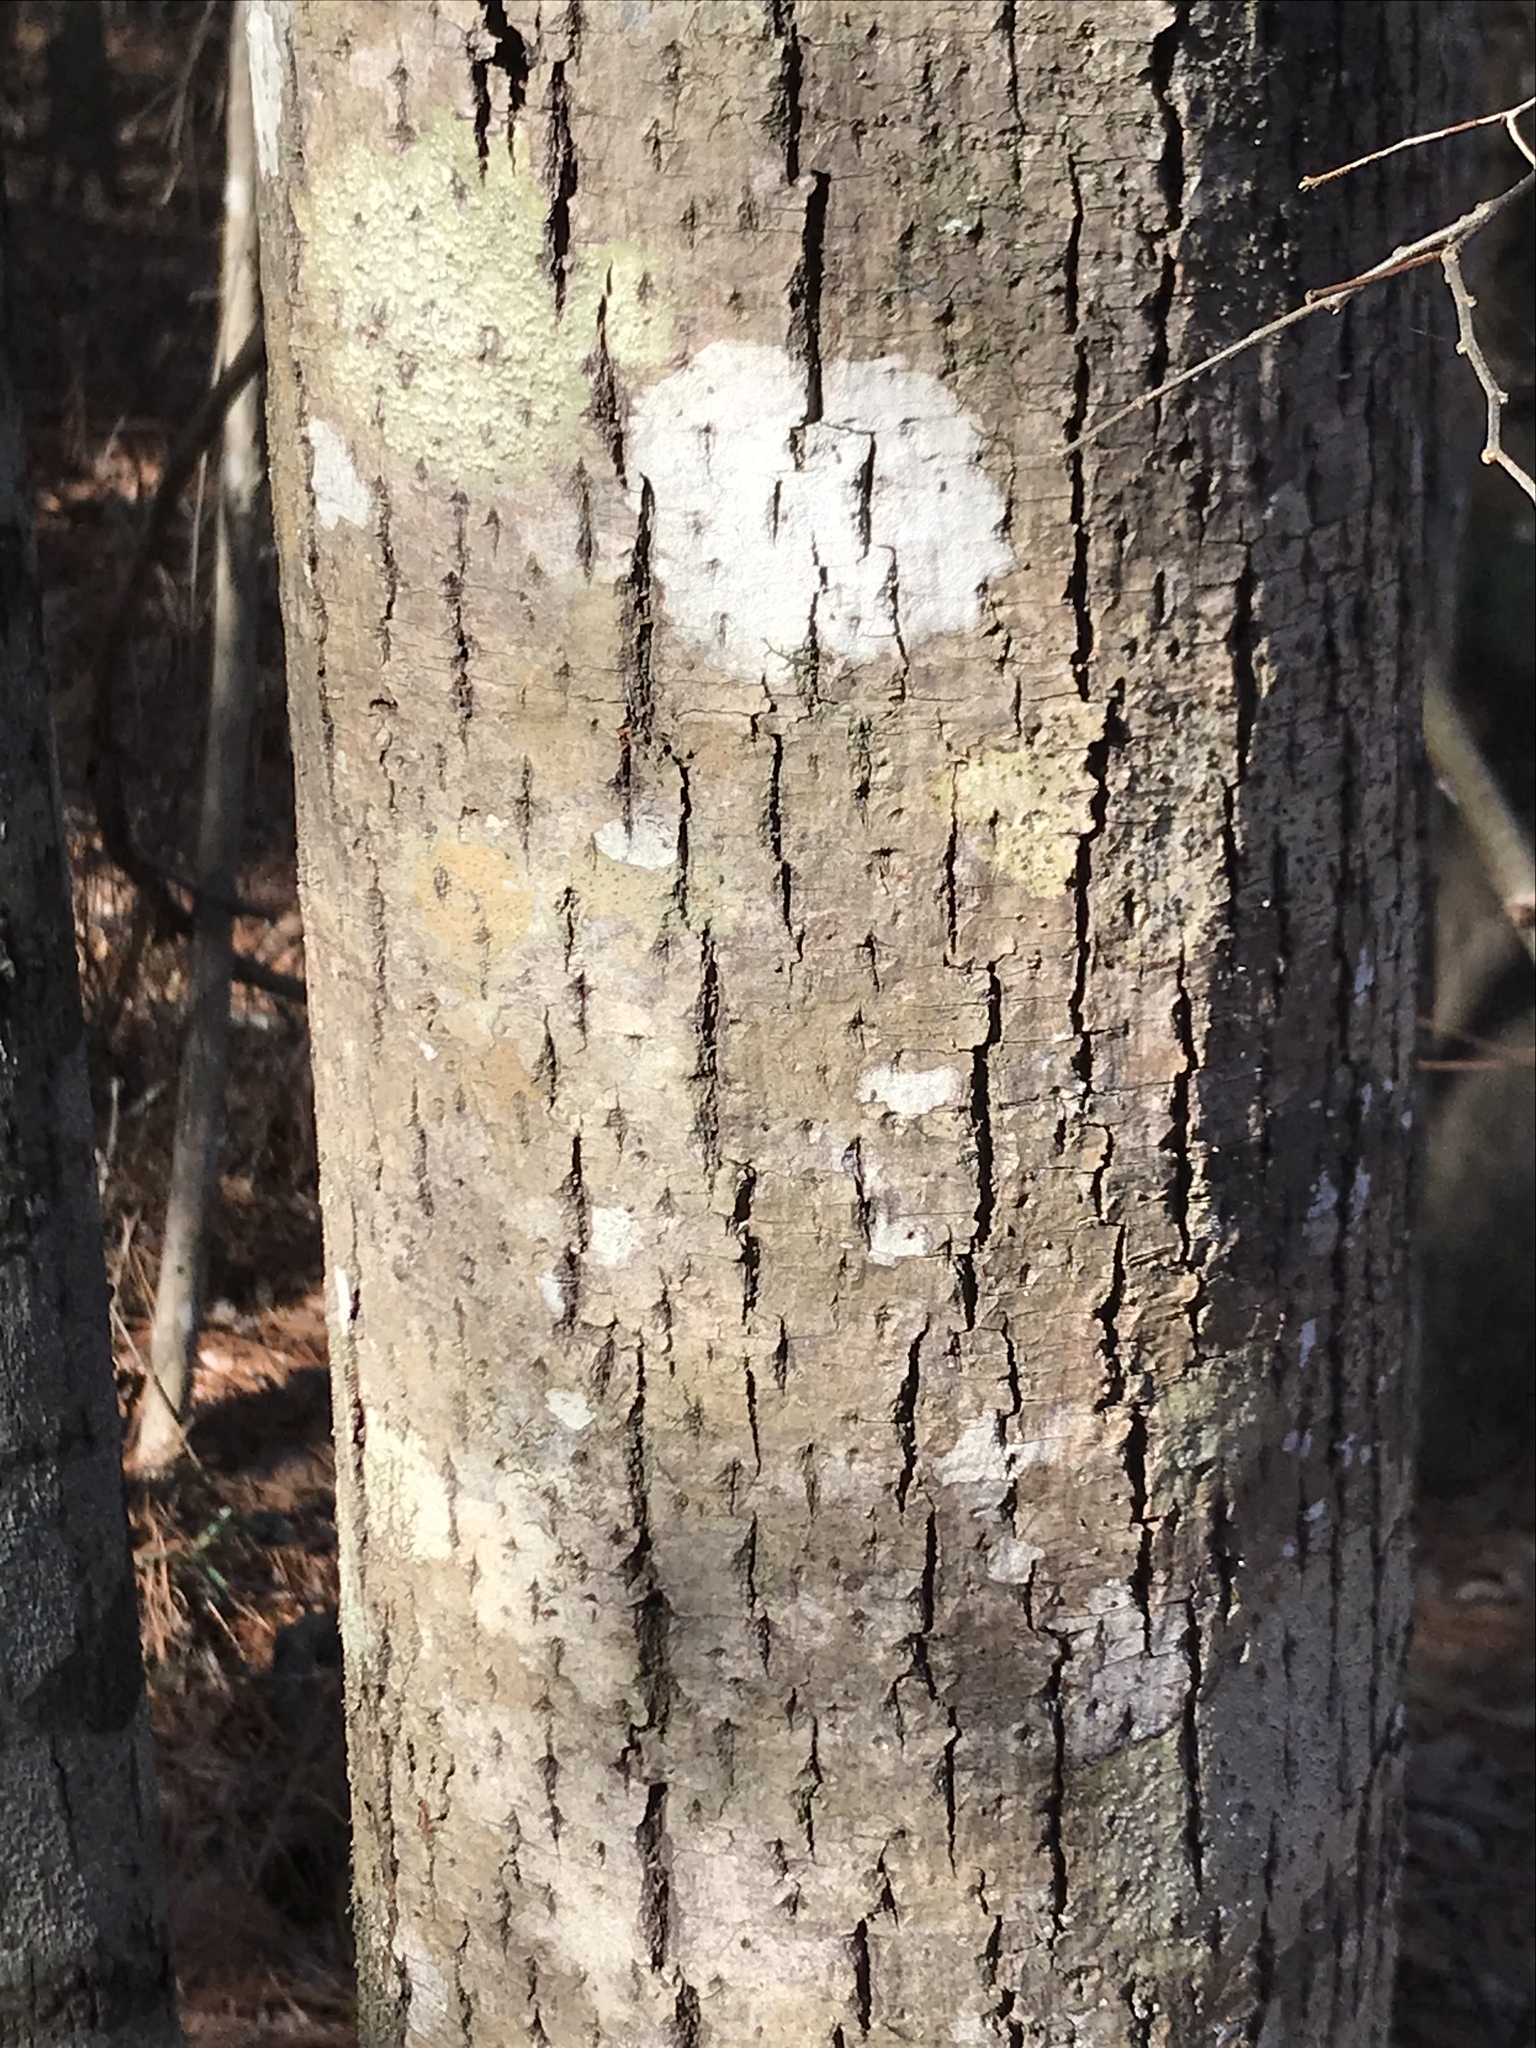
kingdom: Plantae
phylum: Tracheophyta
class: Magnoliopsida
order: Malvales
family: Malvaceae
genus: Tilia
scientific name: Tilia americana
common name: Basswood
